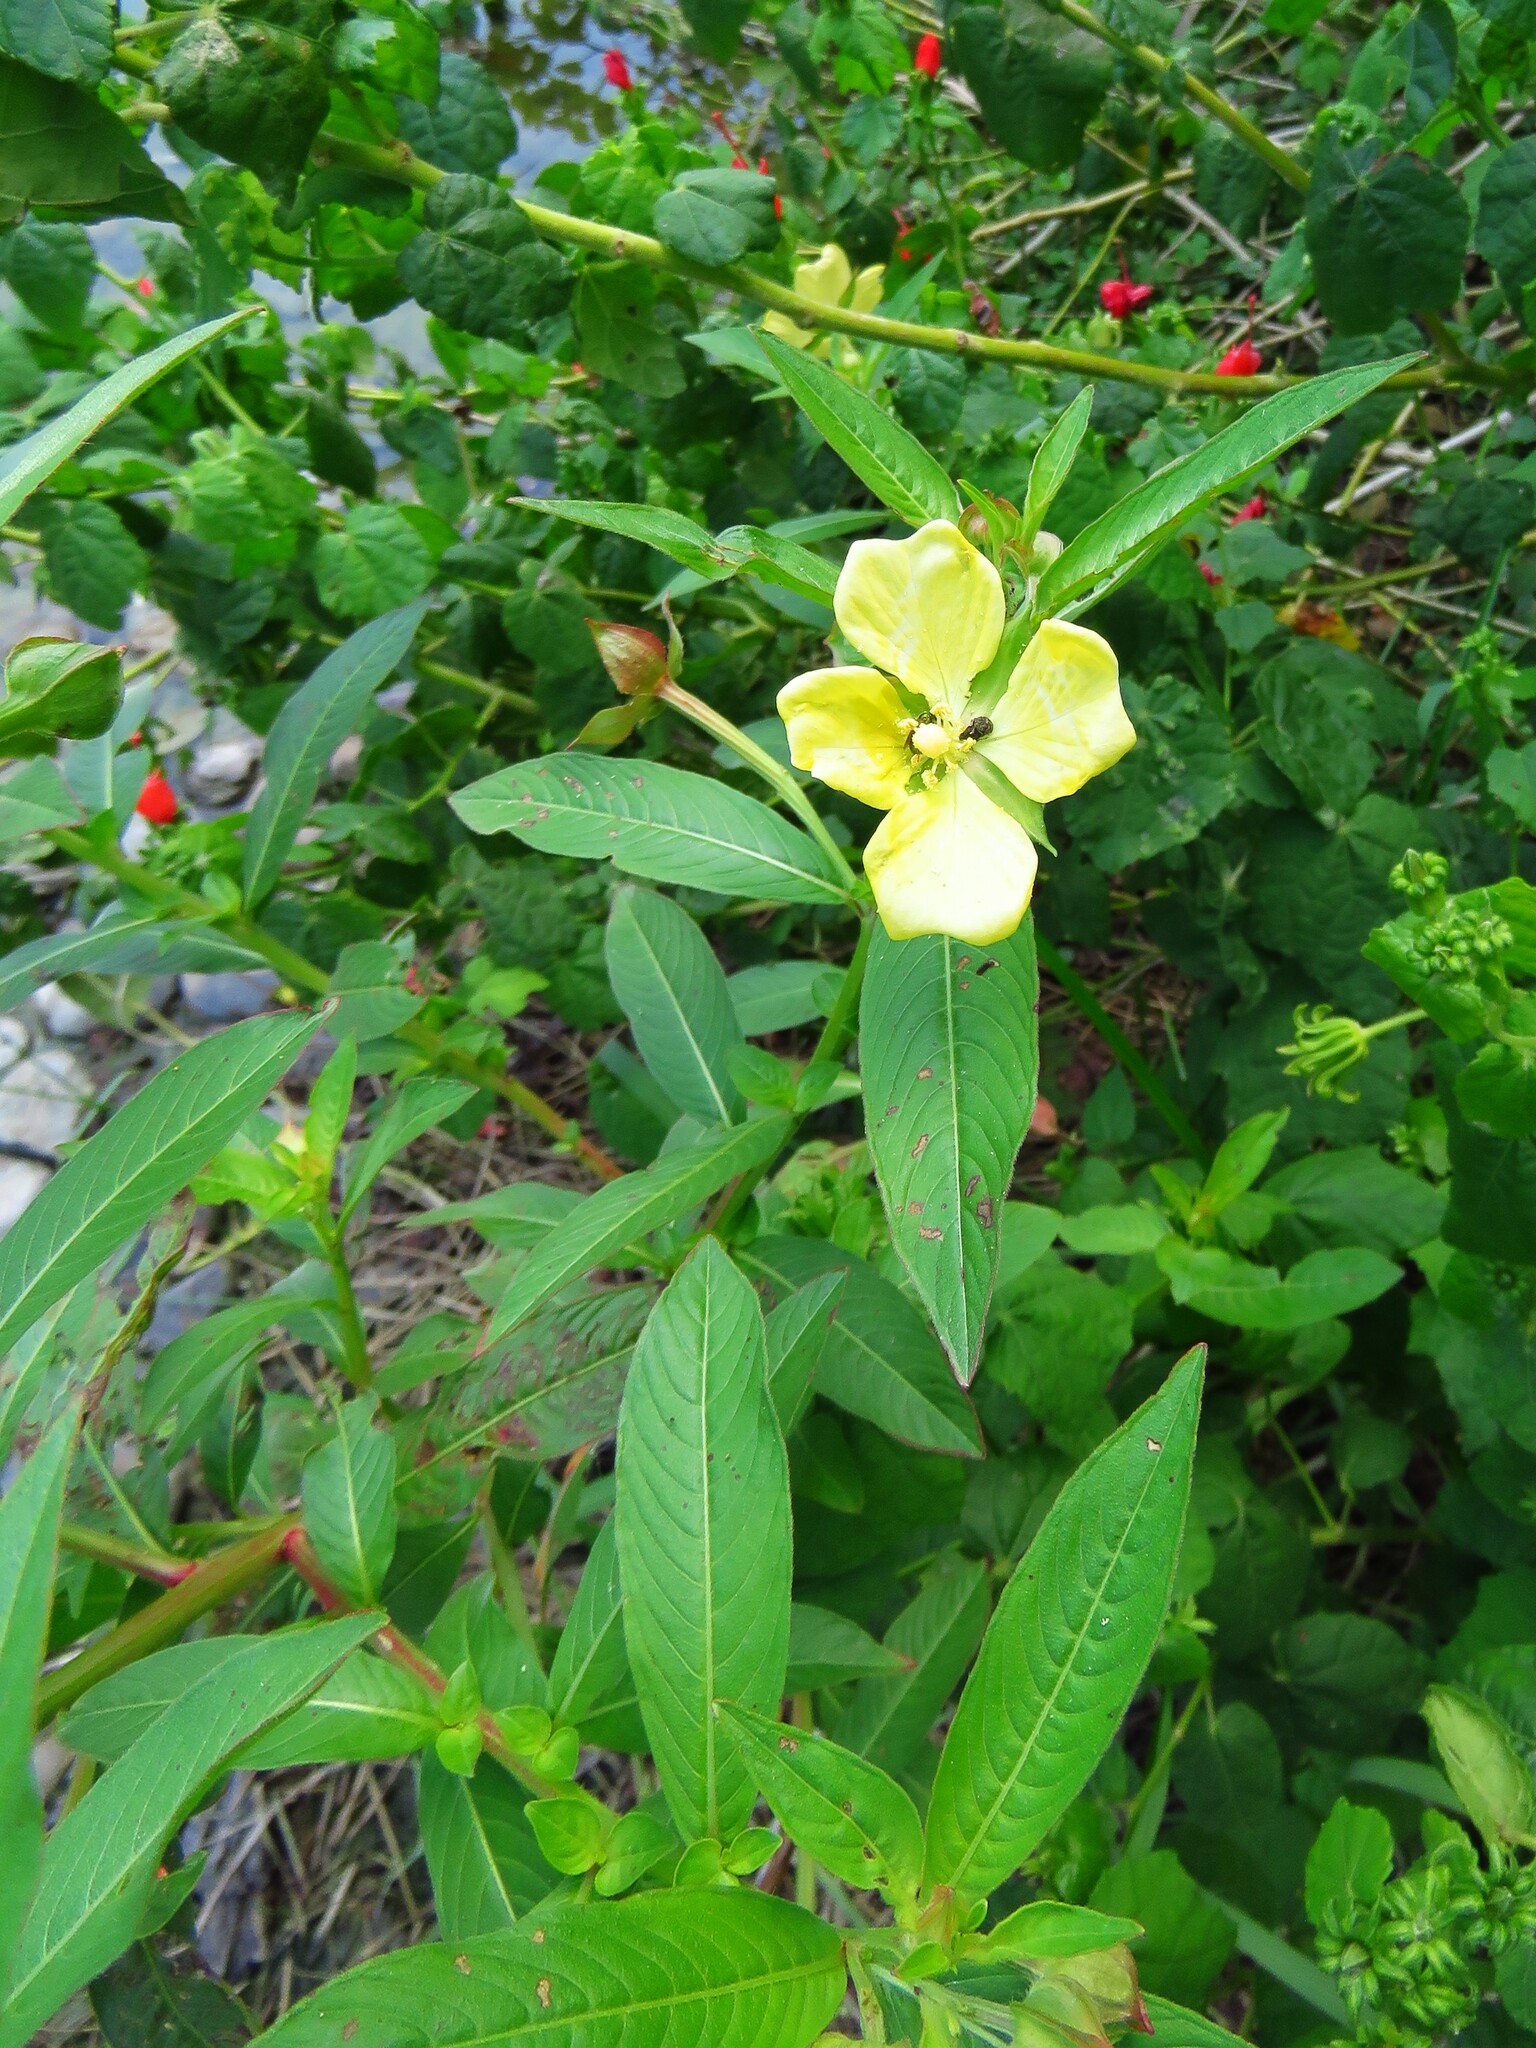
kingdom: Plantae
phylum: Tracheophyta
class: Magnoliopsida
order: Myrtales
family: Onagraceae
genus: Ludwigia
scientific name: Ludwigia octovalvis
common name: Water-primrose
